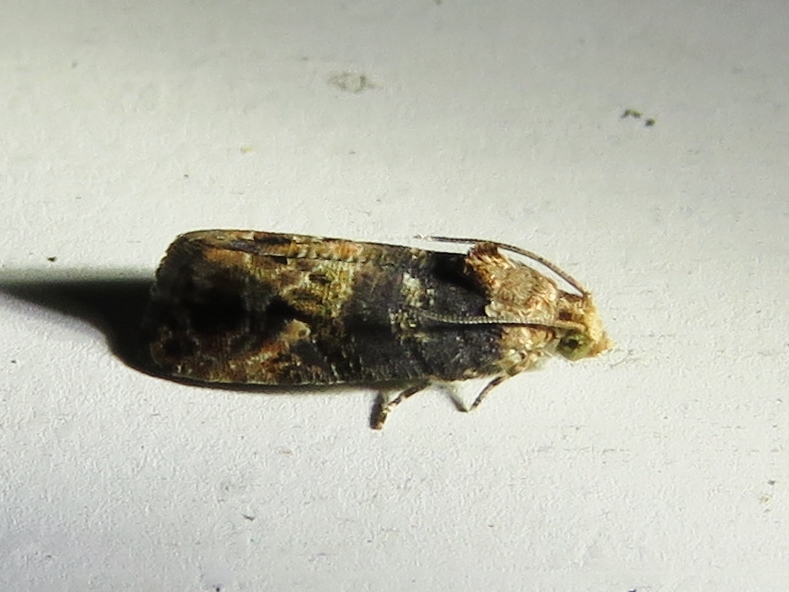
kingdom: Animalia
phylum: Arthropoda
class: Insecta
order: Lepidoptera
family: Tortricidae
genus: Paralobesia
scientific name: Paralobesia viteana
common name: Grape berry moth
